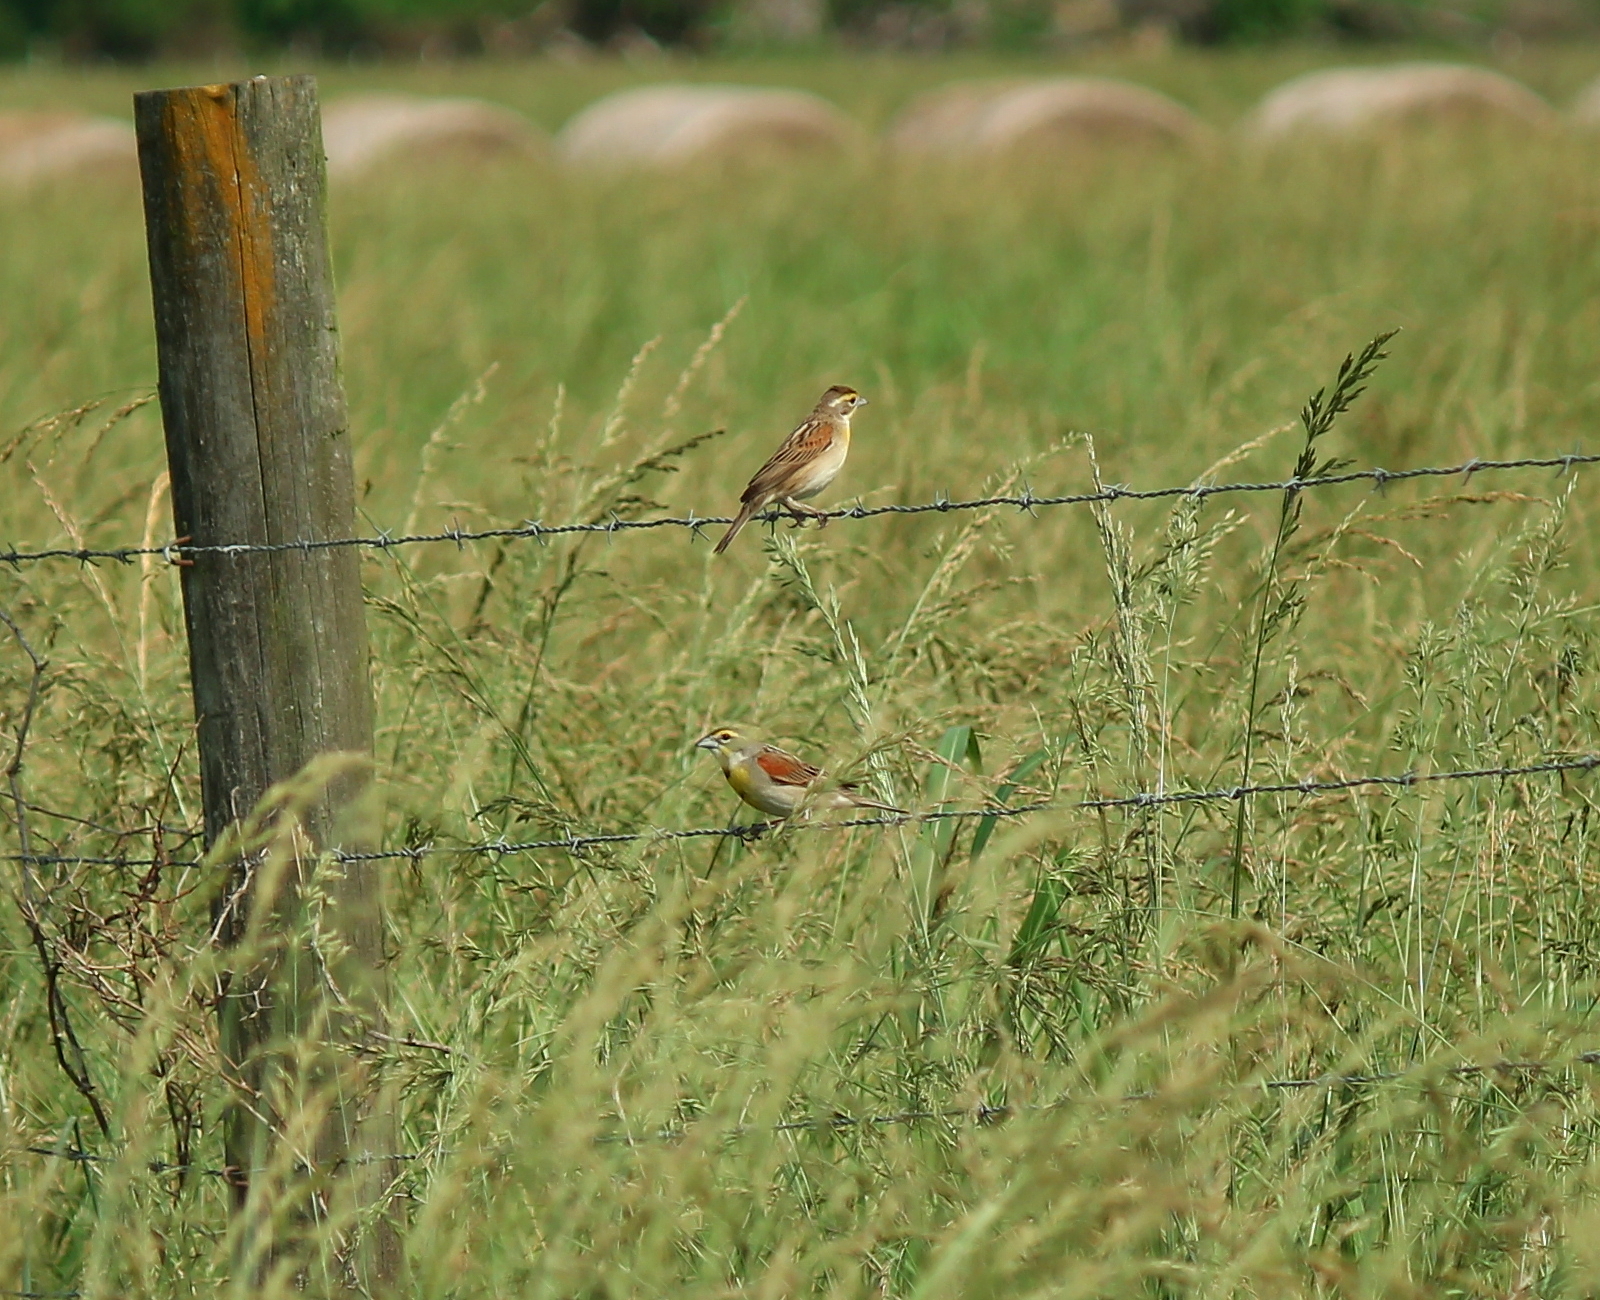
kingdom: Animalia
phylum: Chordata
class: Aves
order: Passeriformes
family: Cardinalidae
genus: Spiza
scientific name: Spiza americana
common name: Dickcissel
